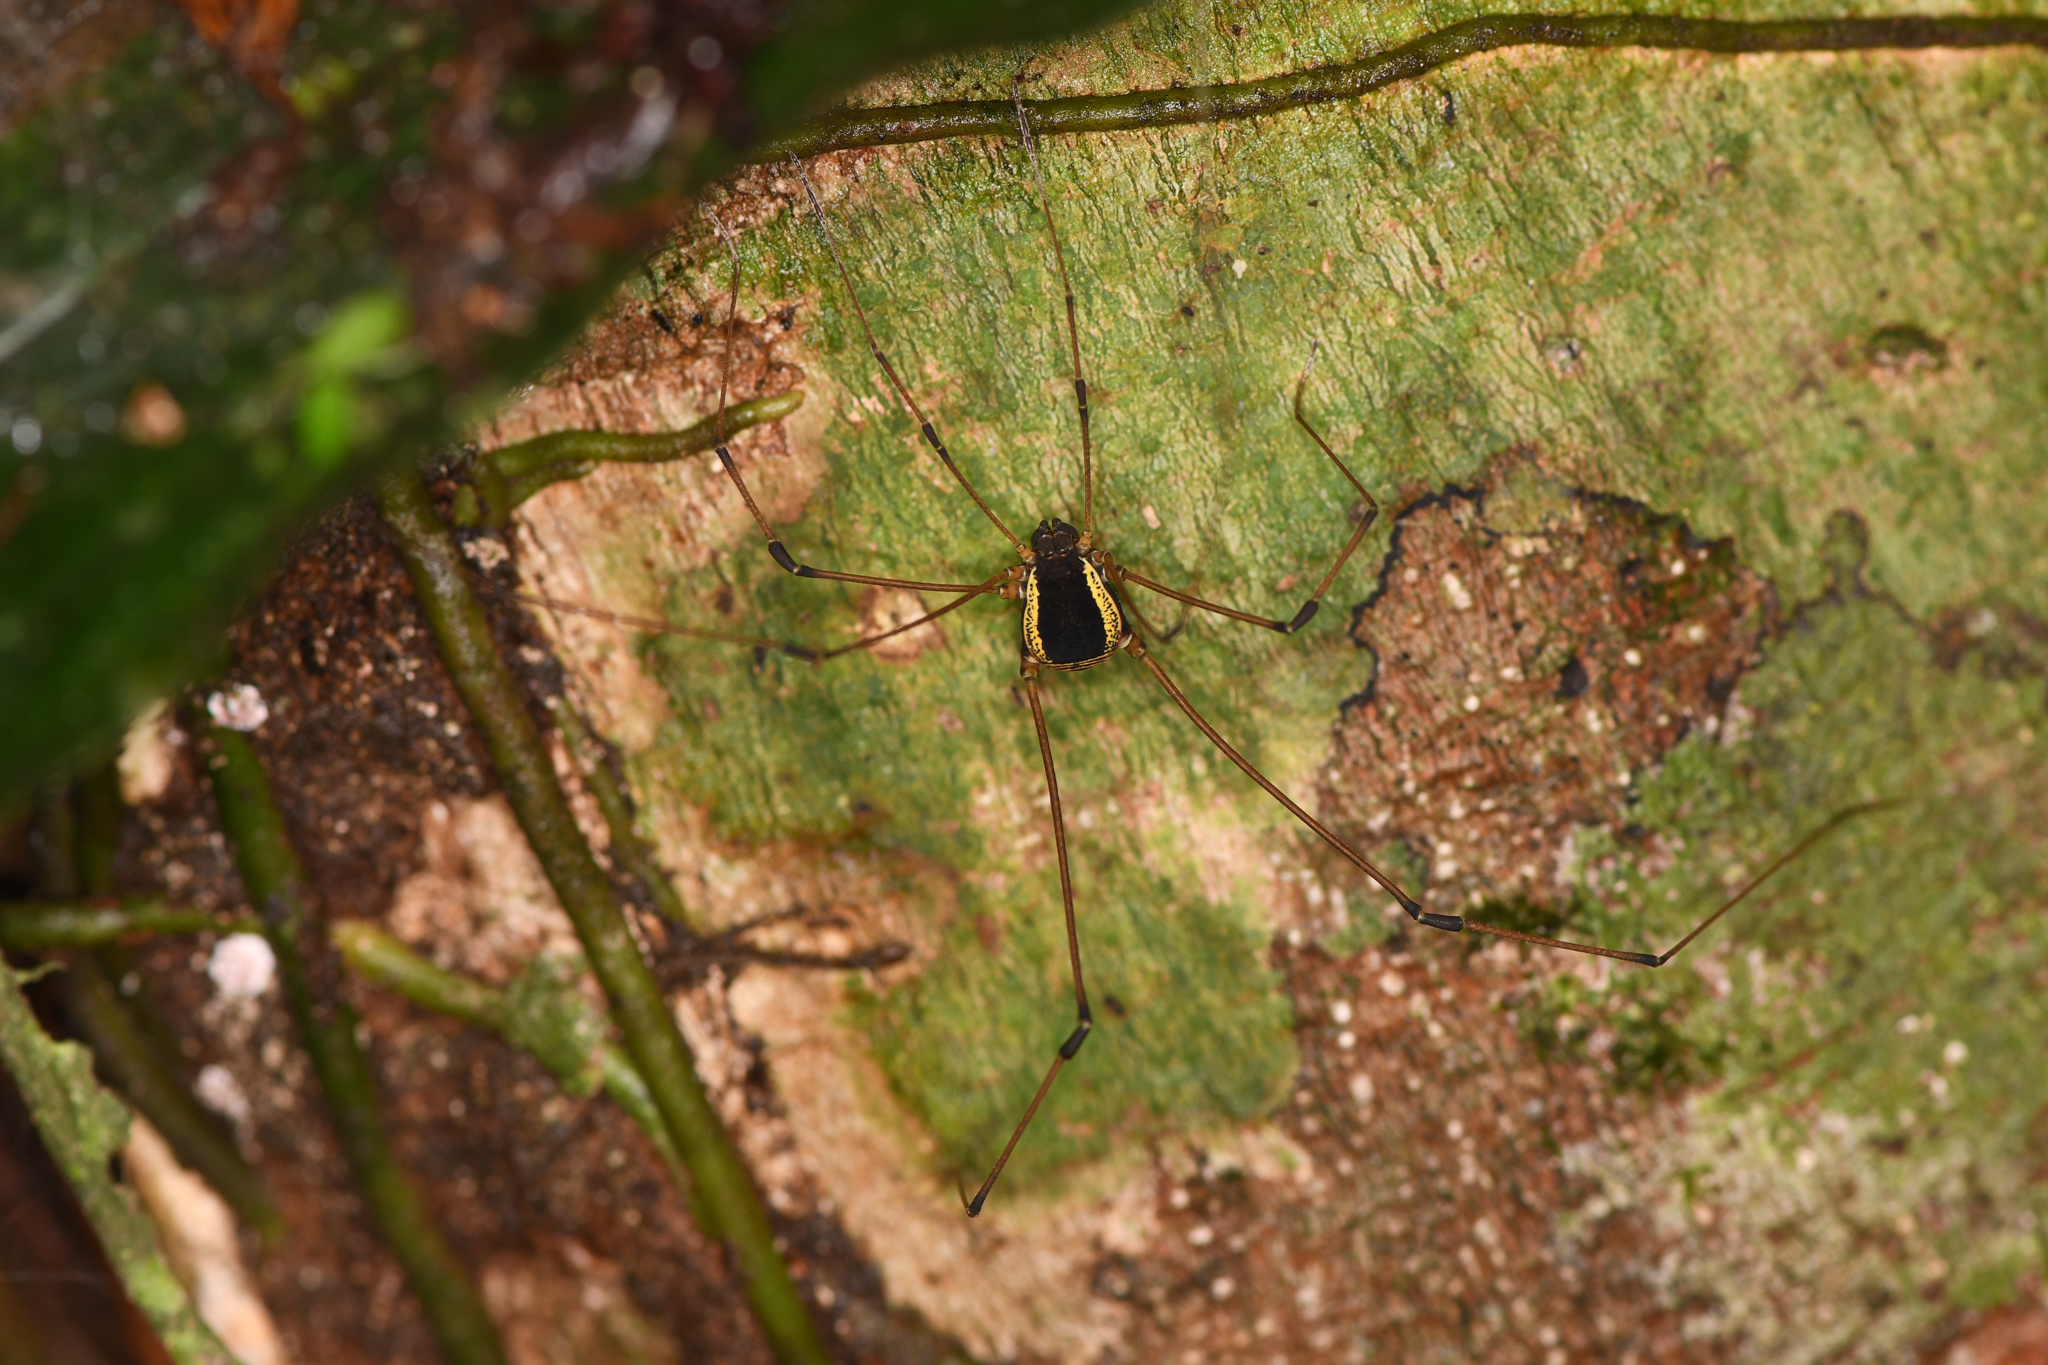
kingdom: Animalia
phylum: Arthropoda
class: Arachnida
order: Opiliones
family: Cosmetidae
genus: Cynorta
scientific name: Cynorta marginalis
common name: Harvestmen
